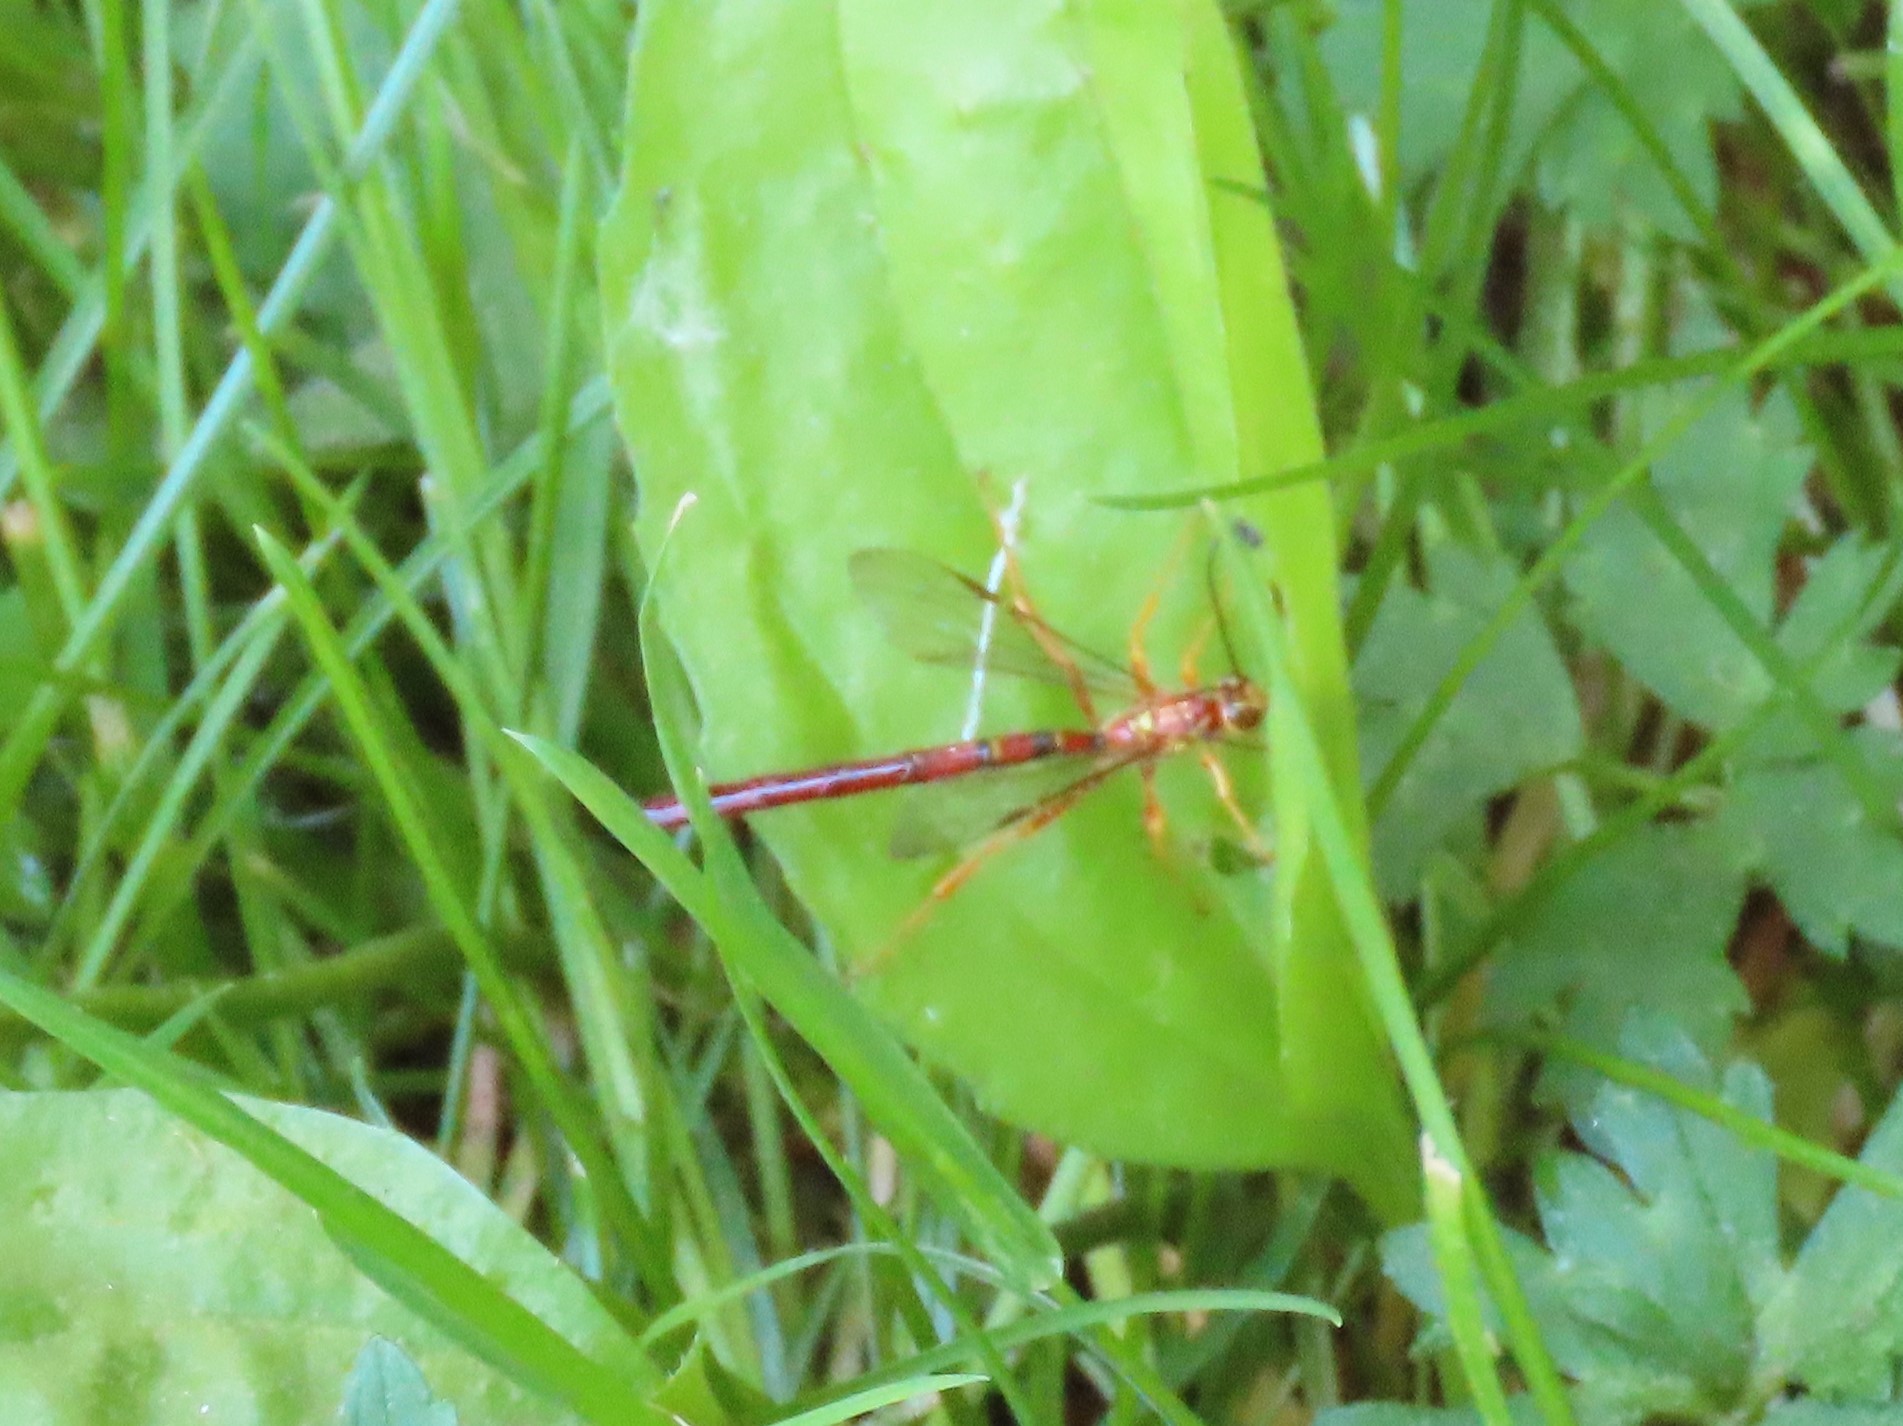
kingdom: Animalia
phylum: Arthropoda
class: Insecta
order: Hymenoptera
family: Ichneumonidae
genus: Megarhyssa
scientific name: Megarhyssa greenei
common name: Greene's giant ichneumonid wasp
